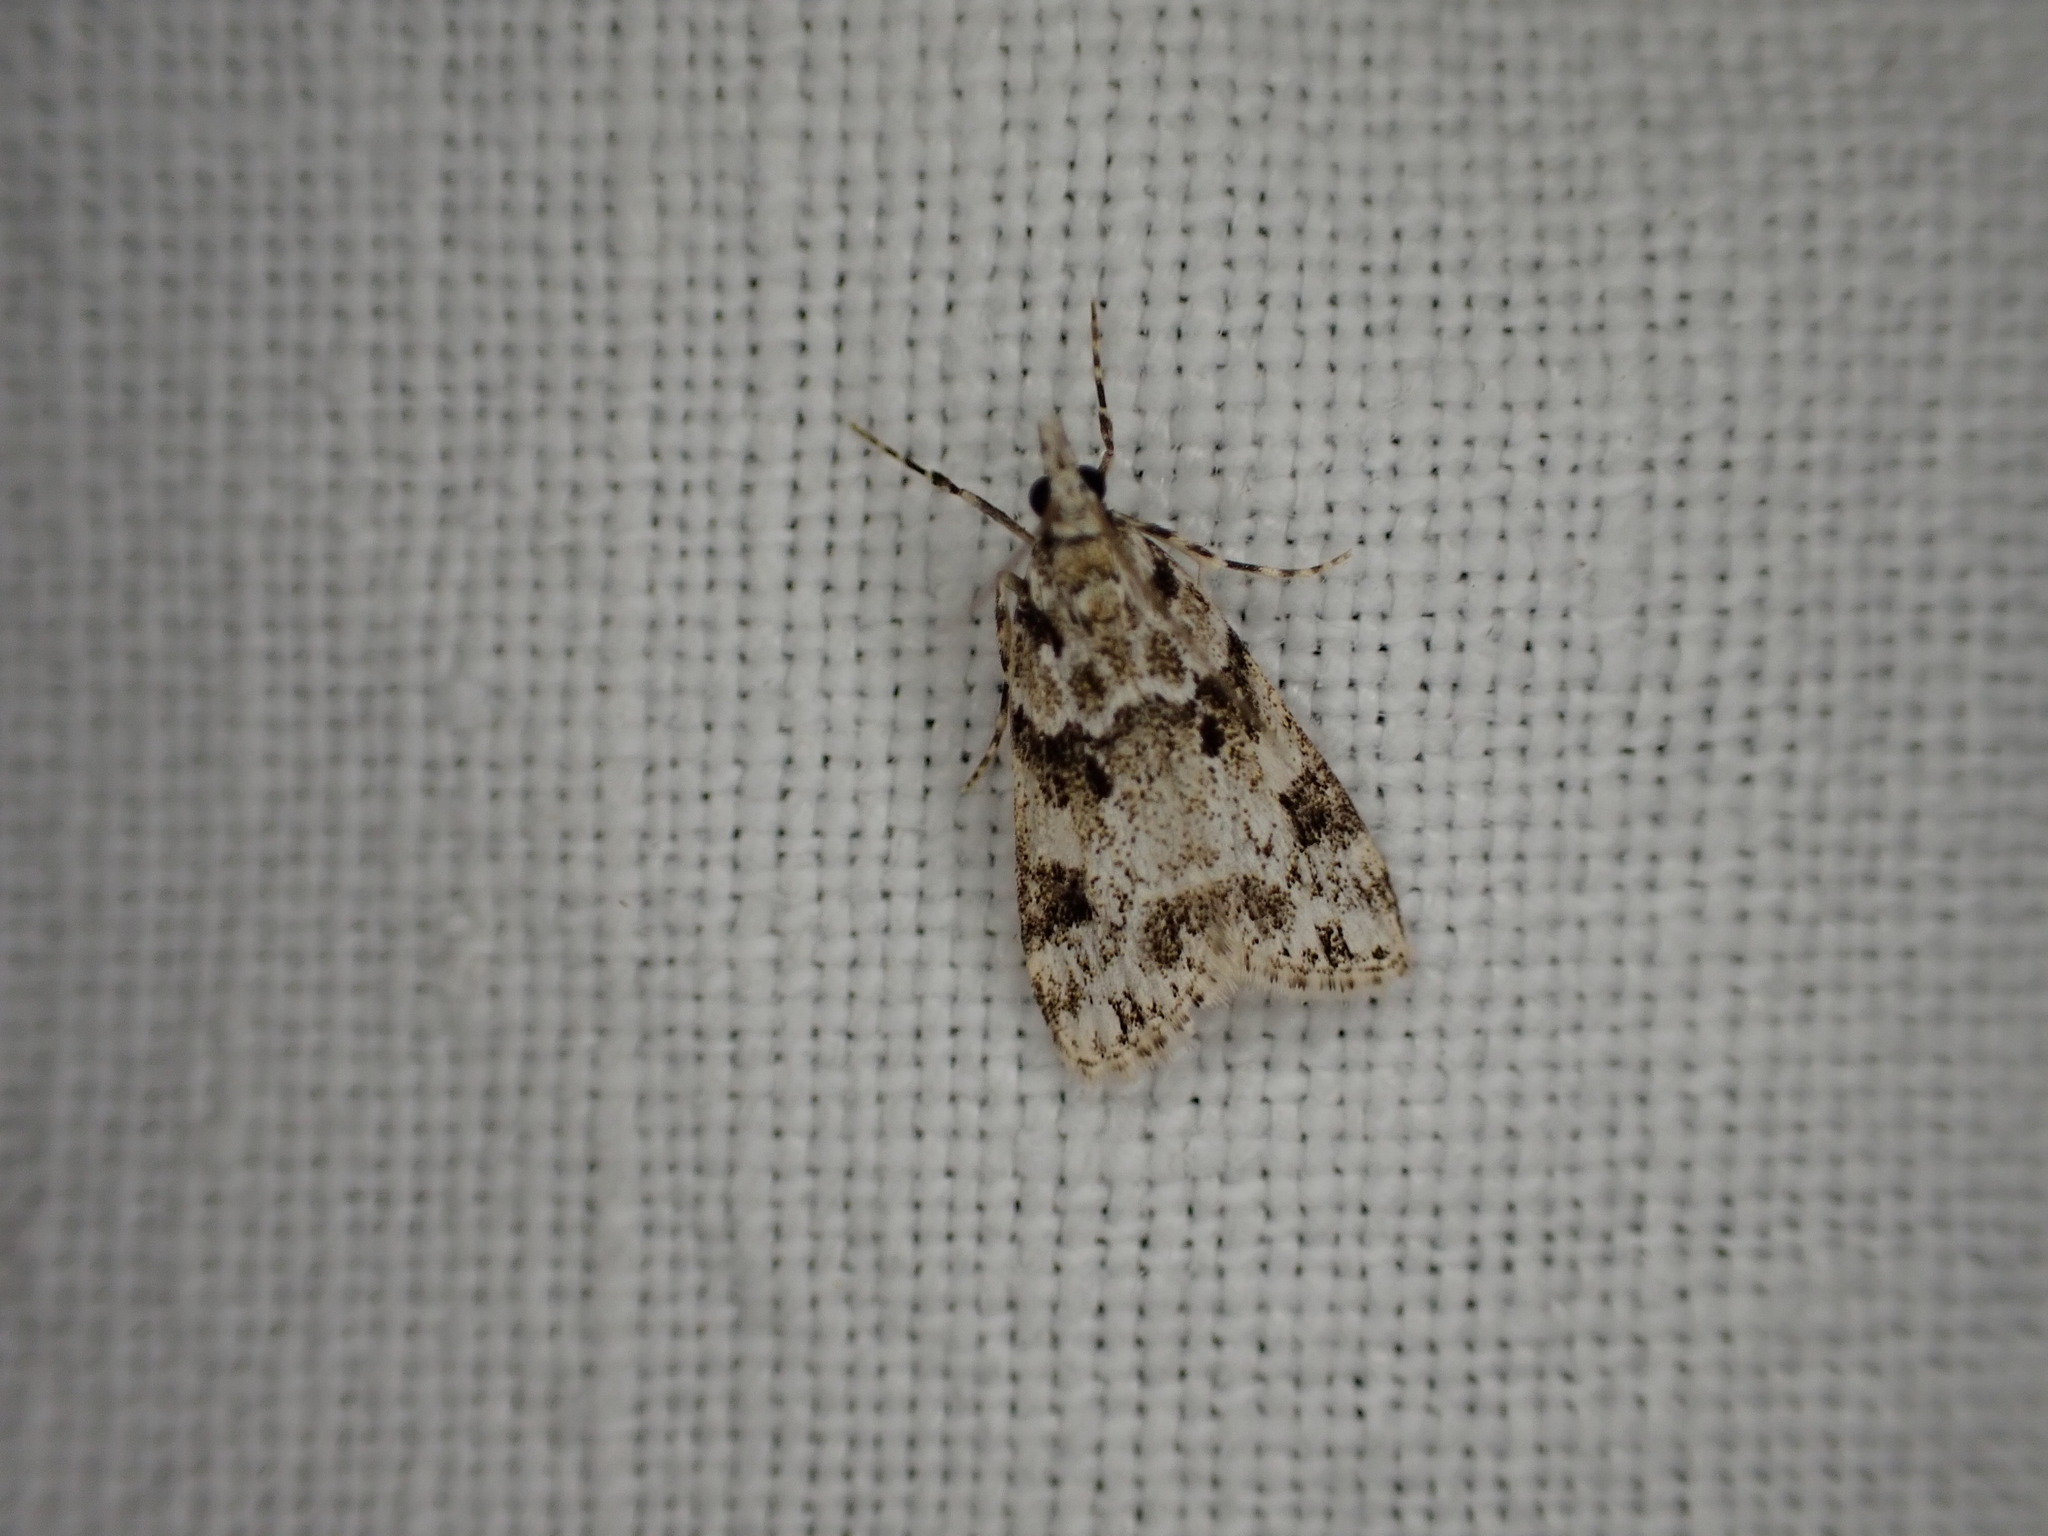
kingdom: Animalia
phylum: Arthropoda
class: Insecta
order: Lepidoptera
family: Crambidae
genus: Eudonia
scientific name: Eudonia delunella
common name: Pied grey
